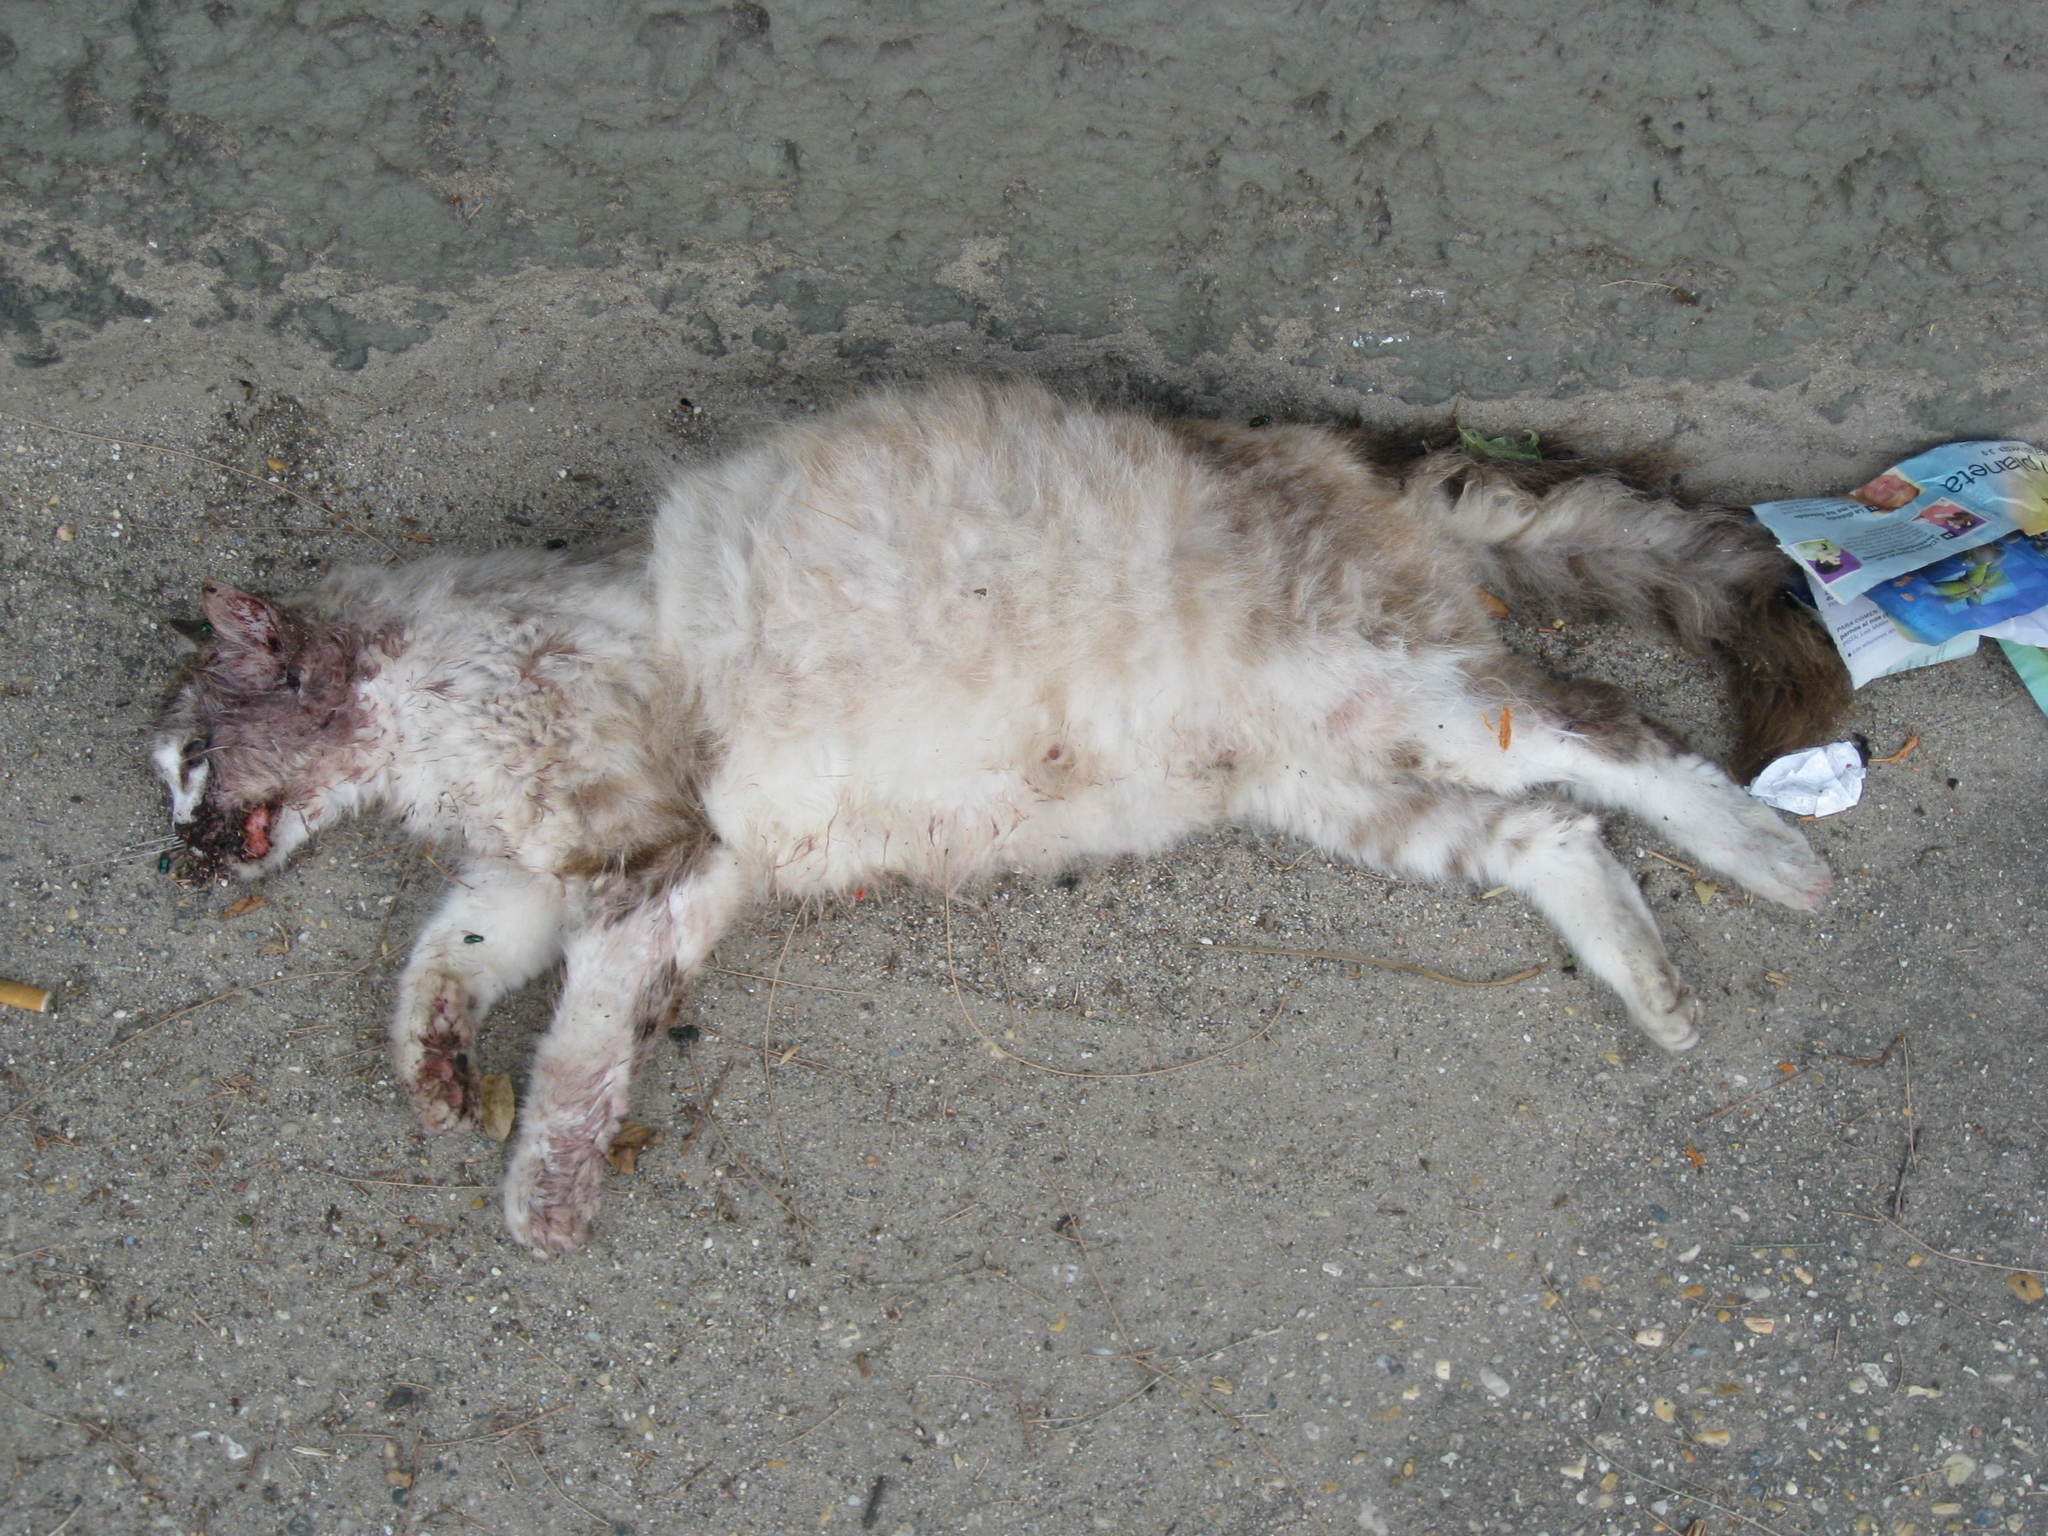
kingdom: Animalia
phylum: Chordata
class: Mammalia
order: Carnivora
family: Felidae
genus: Felis
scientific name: Felis catus
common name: Domestic cat
